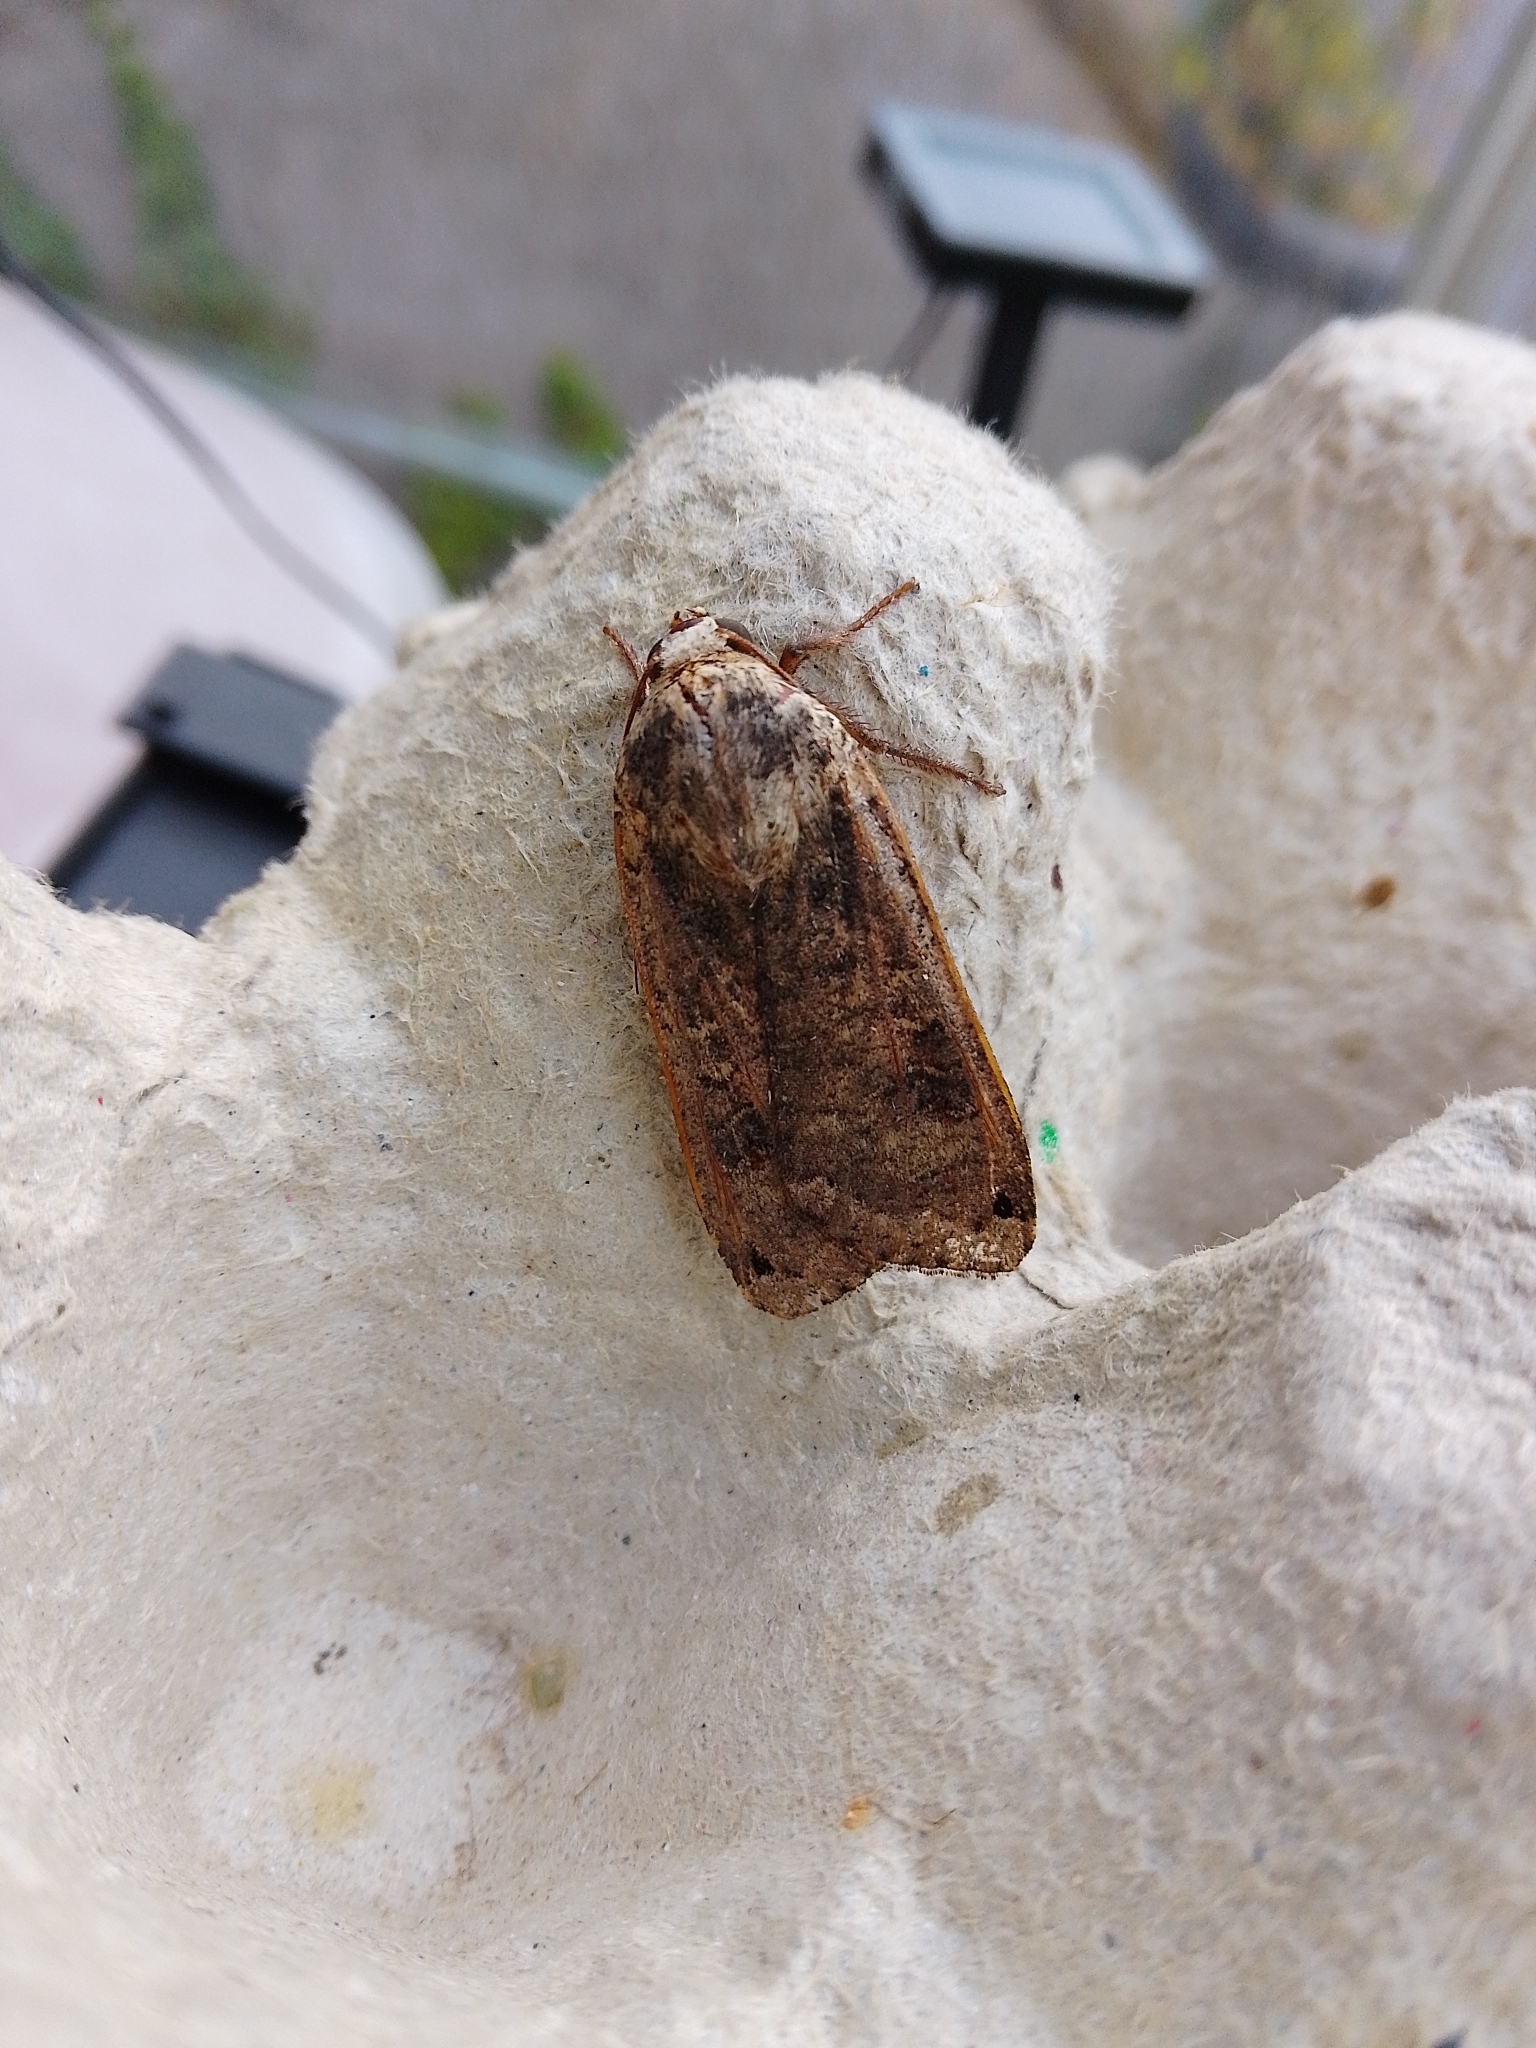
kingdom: Animalia
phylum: Arthropoda
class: Insecta
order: Lepidoptera
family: Noctuidae
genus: Noctua
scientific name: Noctua pronuba
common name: Large yellow underwing
